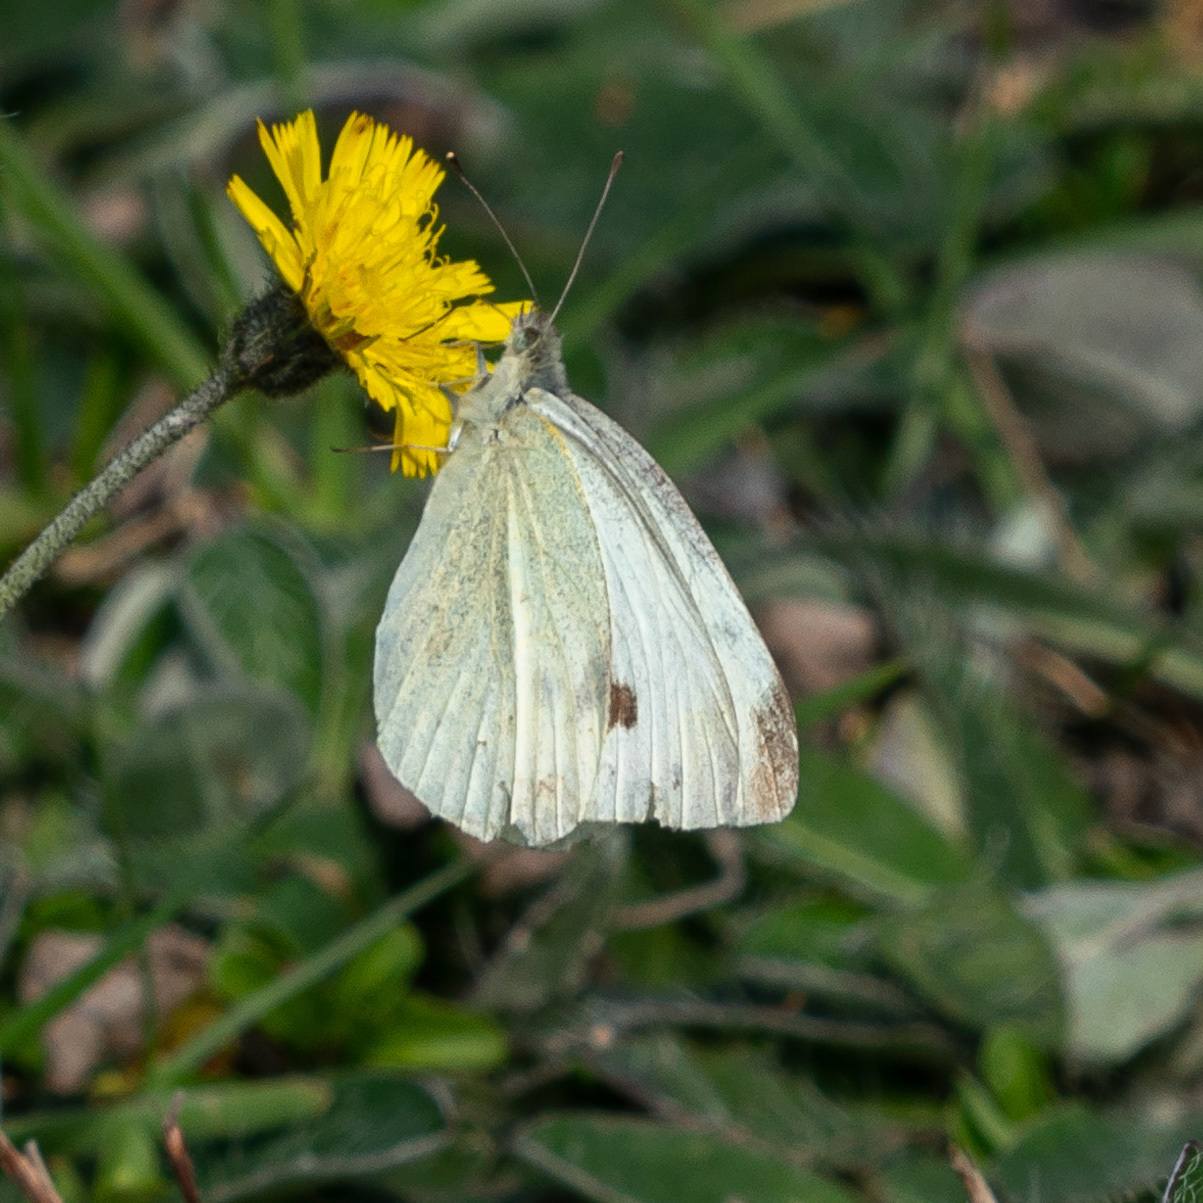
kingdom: Animalia
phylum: Arthropoda
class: Insecta
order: Lepidoptera
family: Pieridae
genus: Pieris
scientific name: Pieris rapae
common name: Small white
